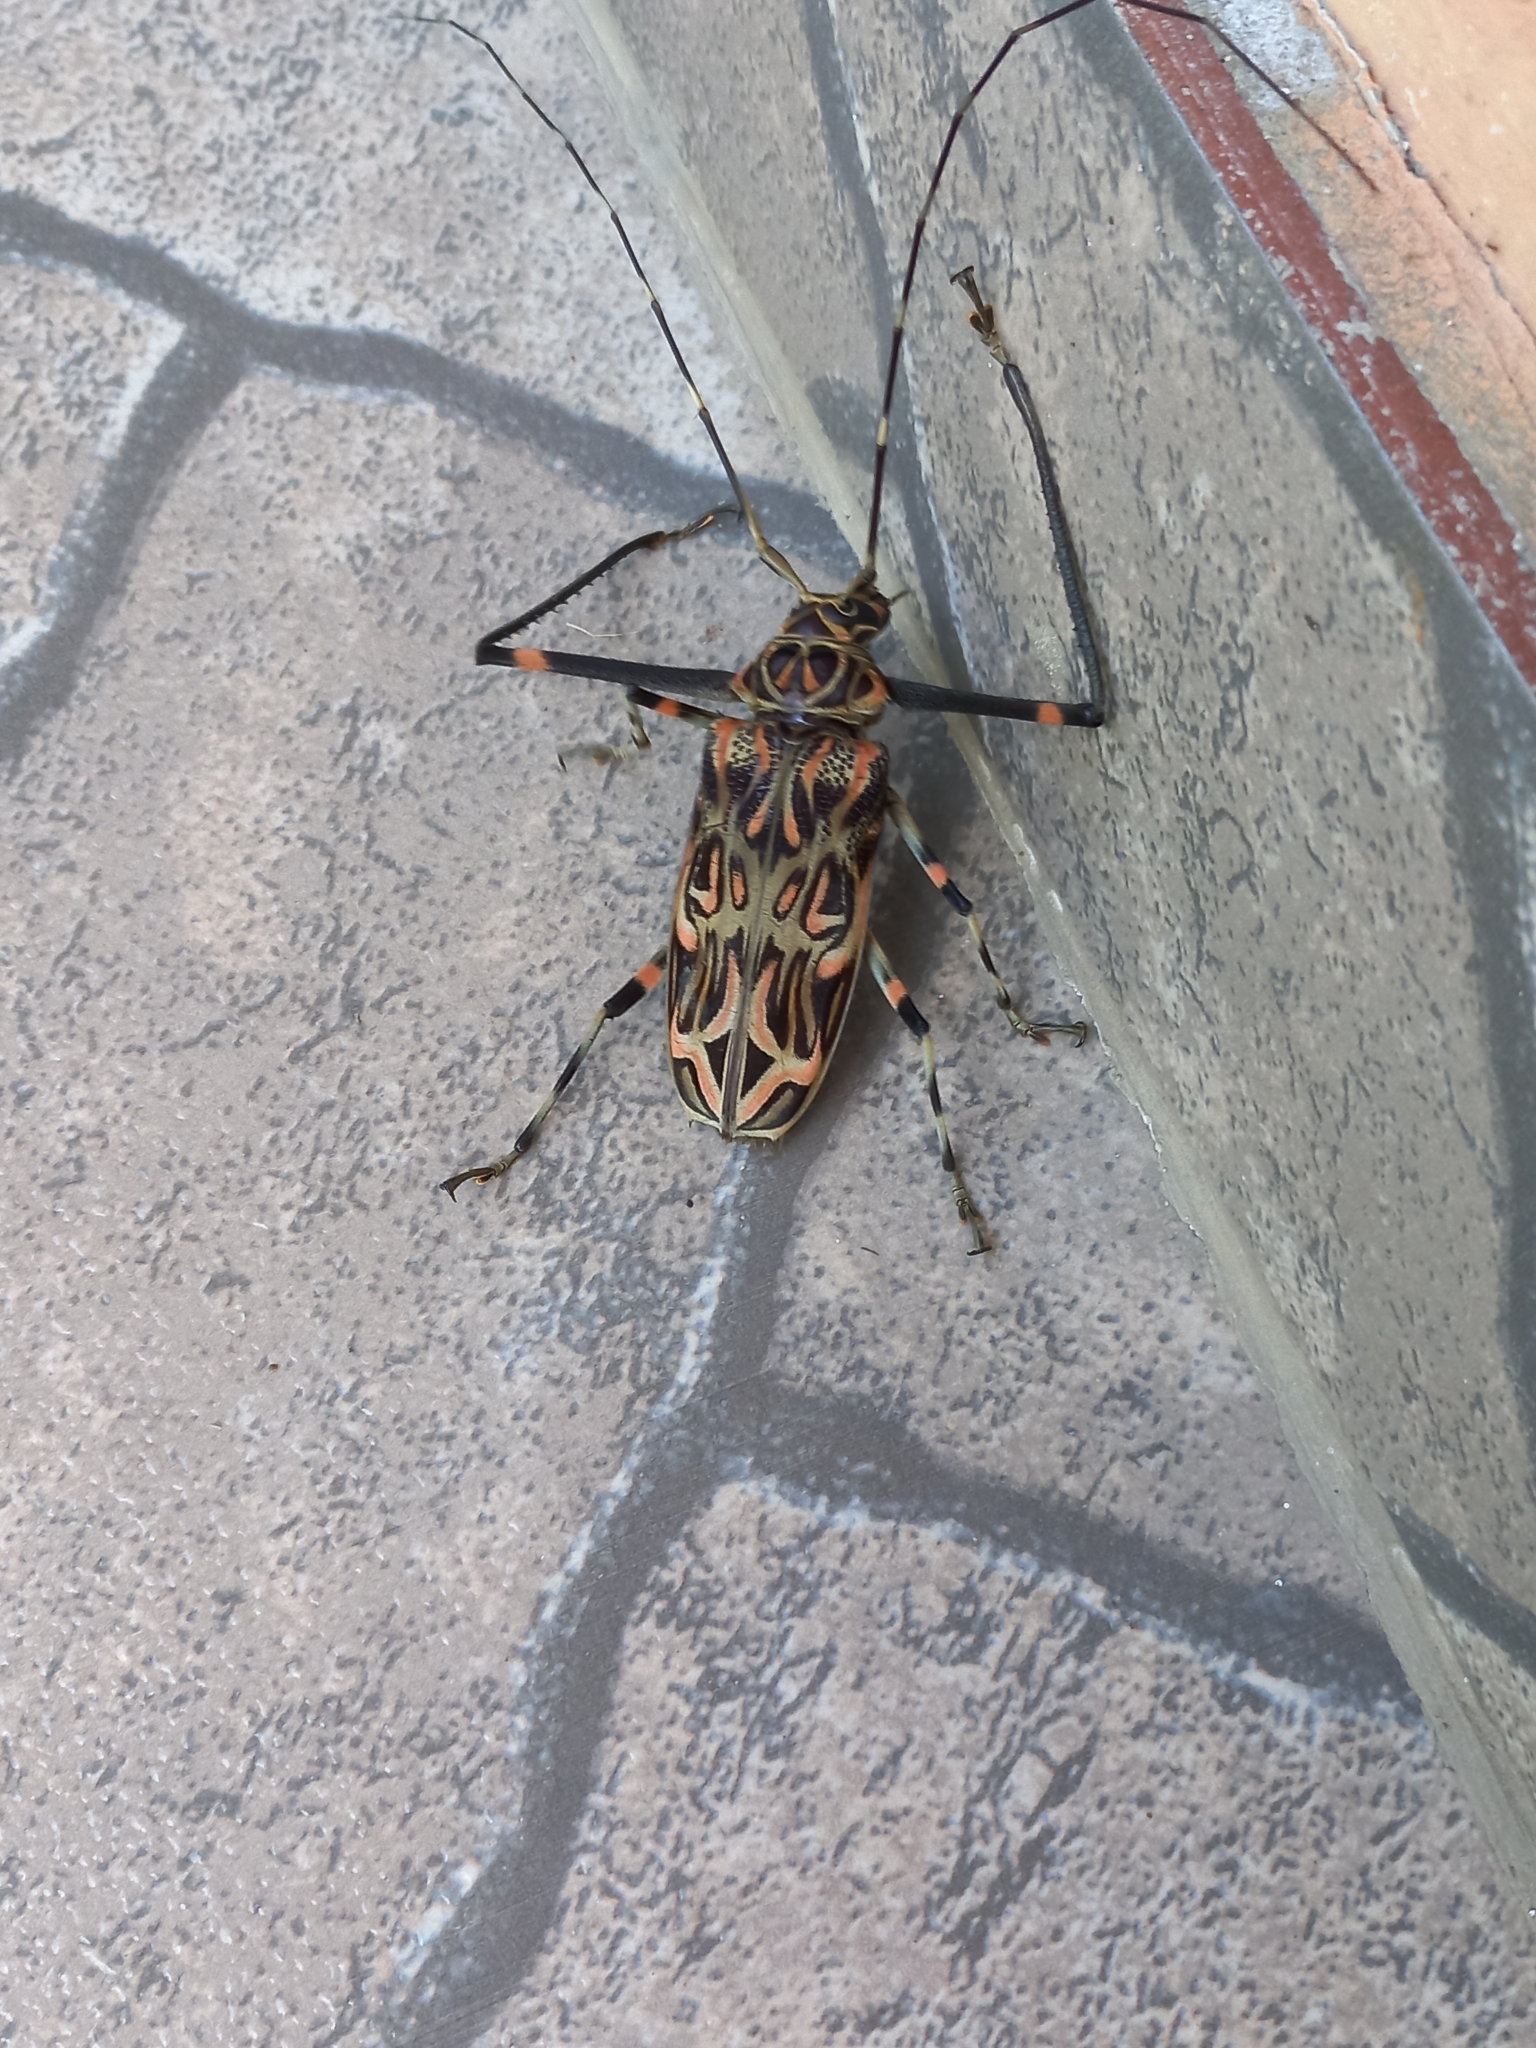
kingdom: Animalia
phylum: Arthropoda
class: Insecta
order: Coleoptera
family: Cerambycidae
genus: Acrocinus
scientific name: Acrocinus longimanus
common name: Arlequin
